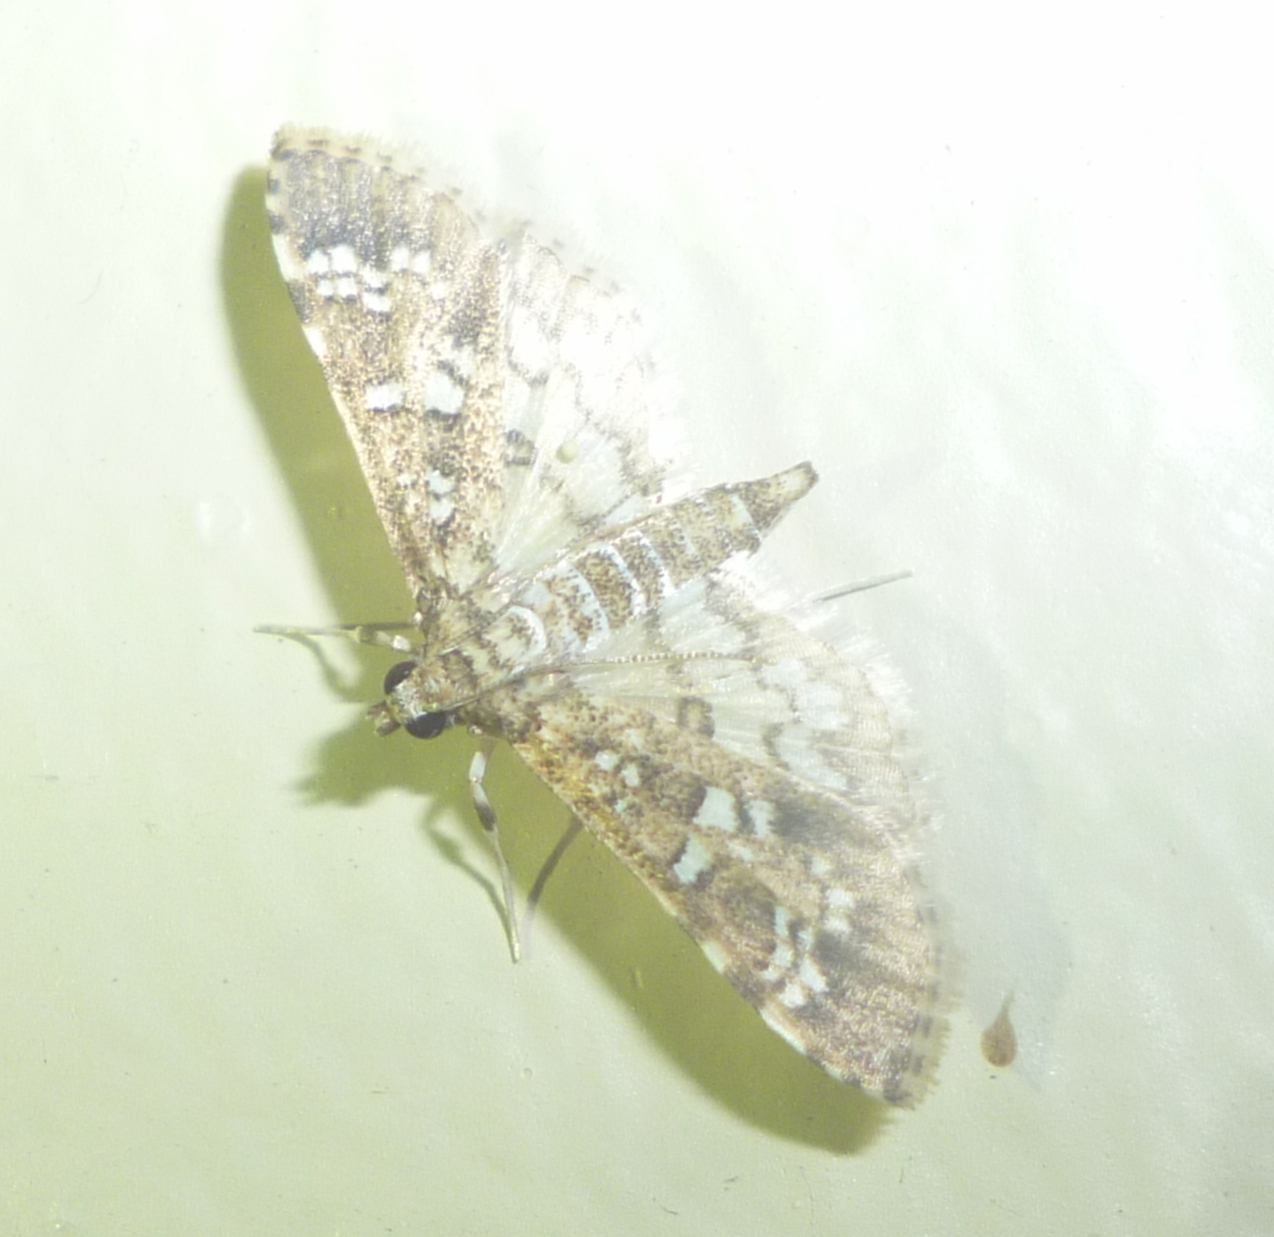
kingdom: Animalia
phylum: Arthropoda
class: Insecta
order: Lepidoptera
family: Crambidae
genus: Samea
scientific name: Samea multiplicalis
